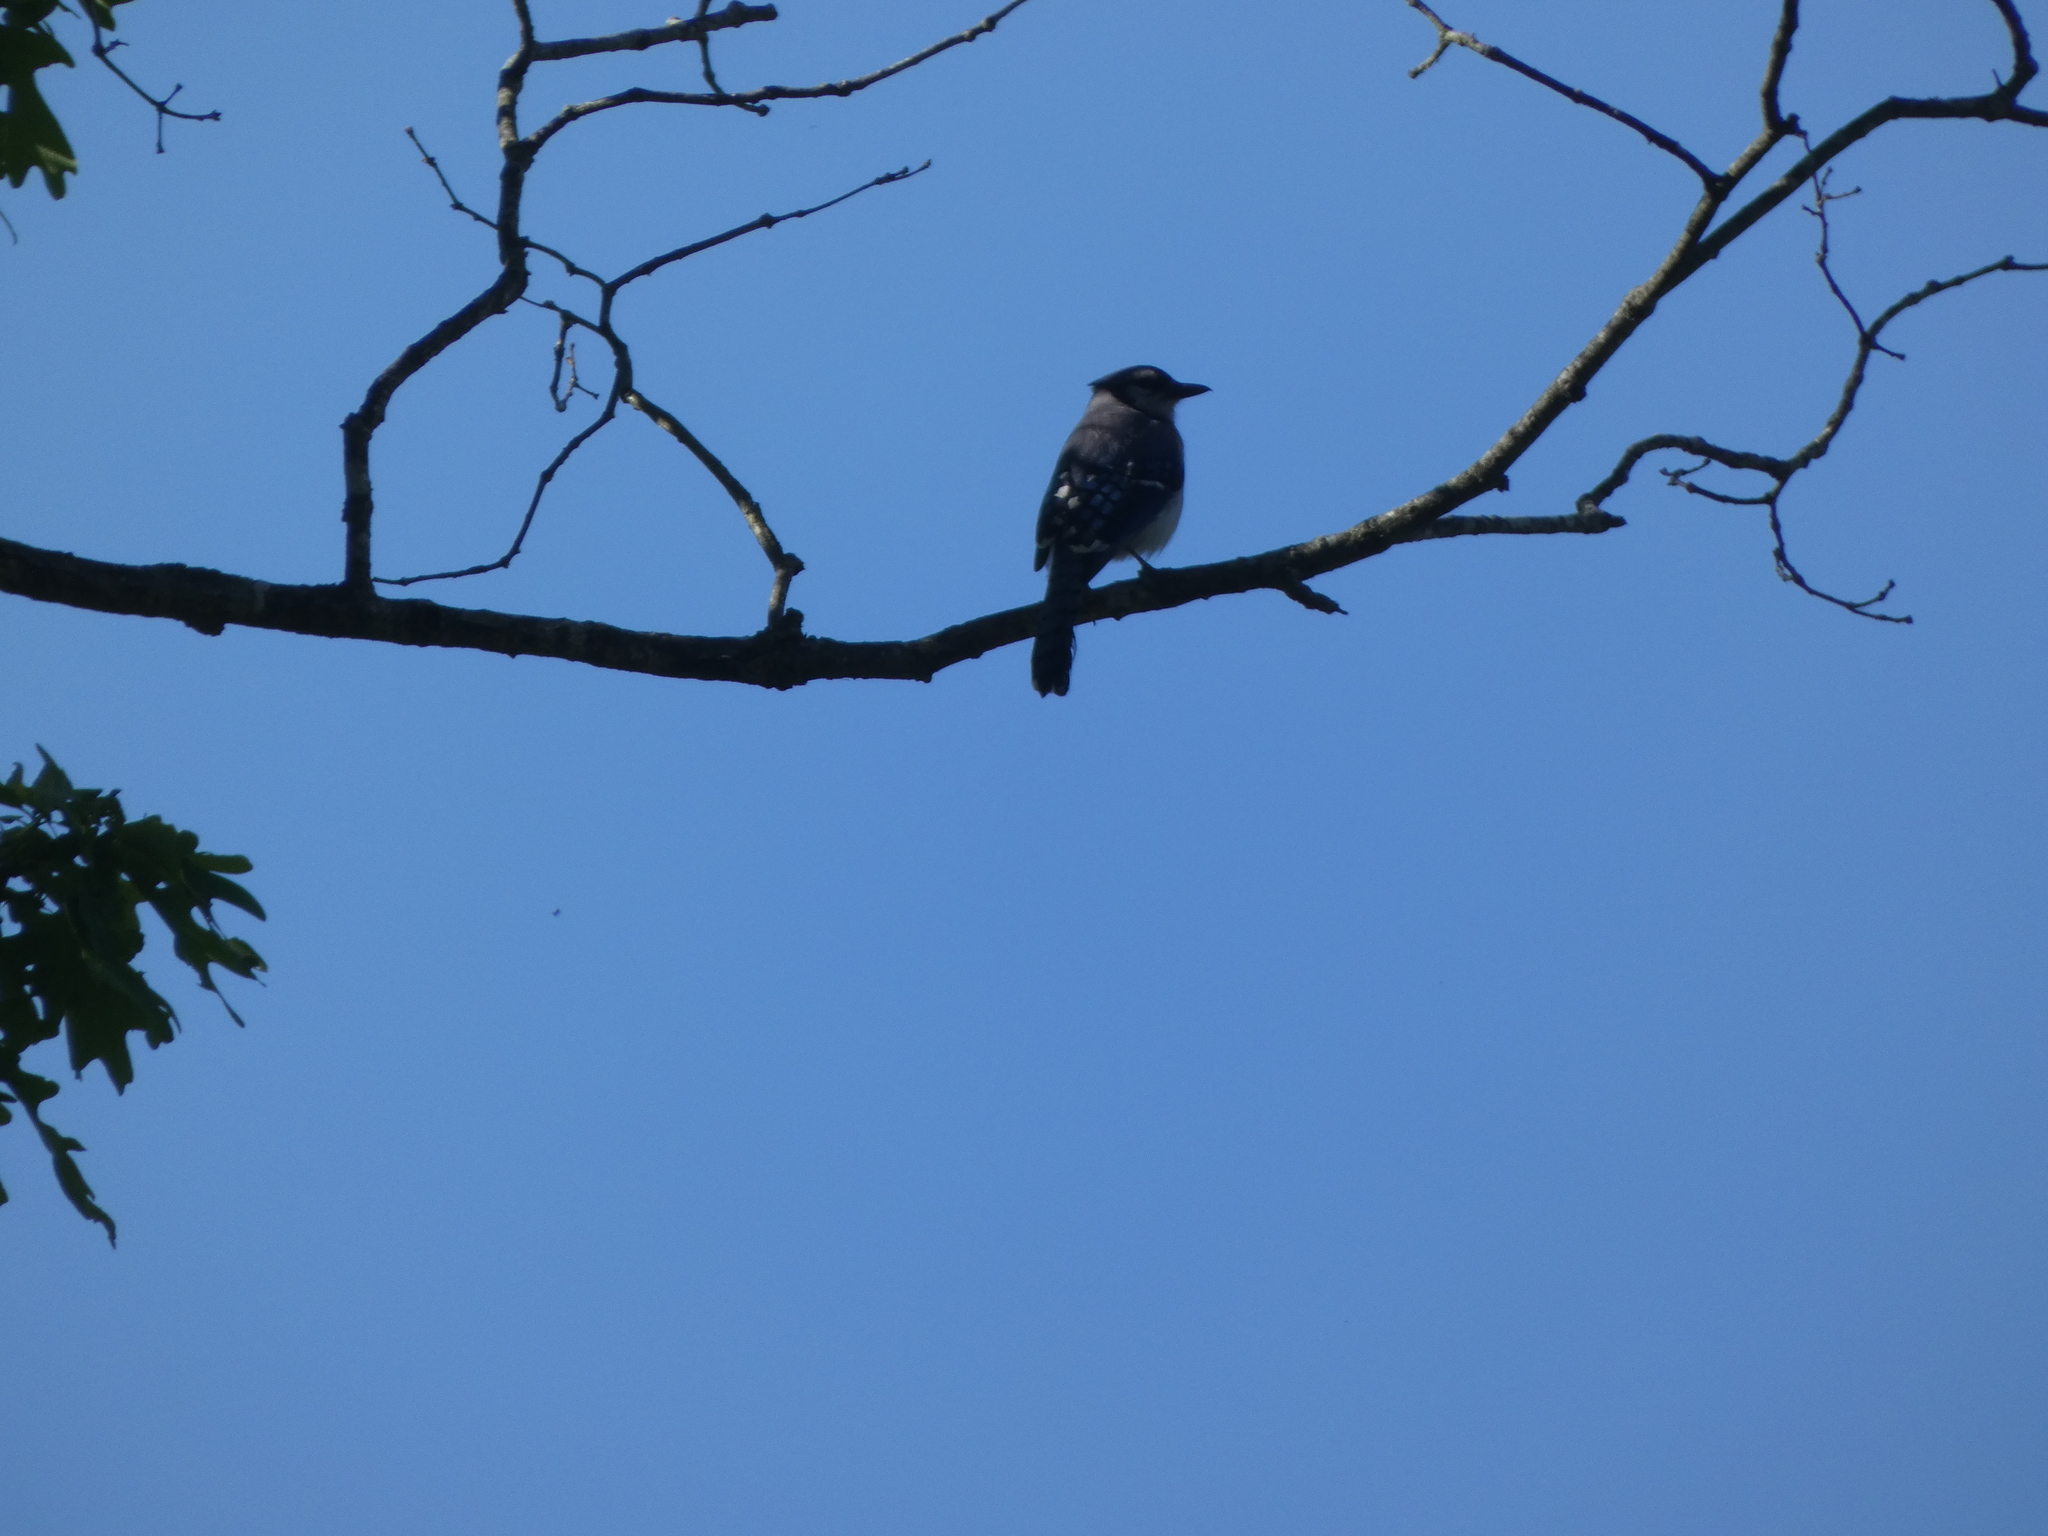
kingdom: Animalia
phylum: Chordata
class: Aves
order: Passeriformes
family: Corvidae
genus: Cyanocitta
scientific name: Cyanocitta cristata
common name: Blue jay
